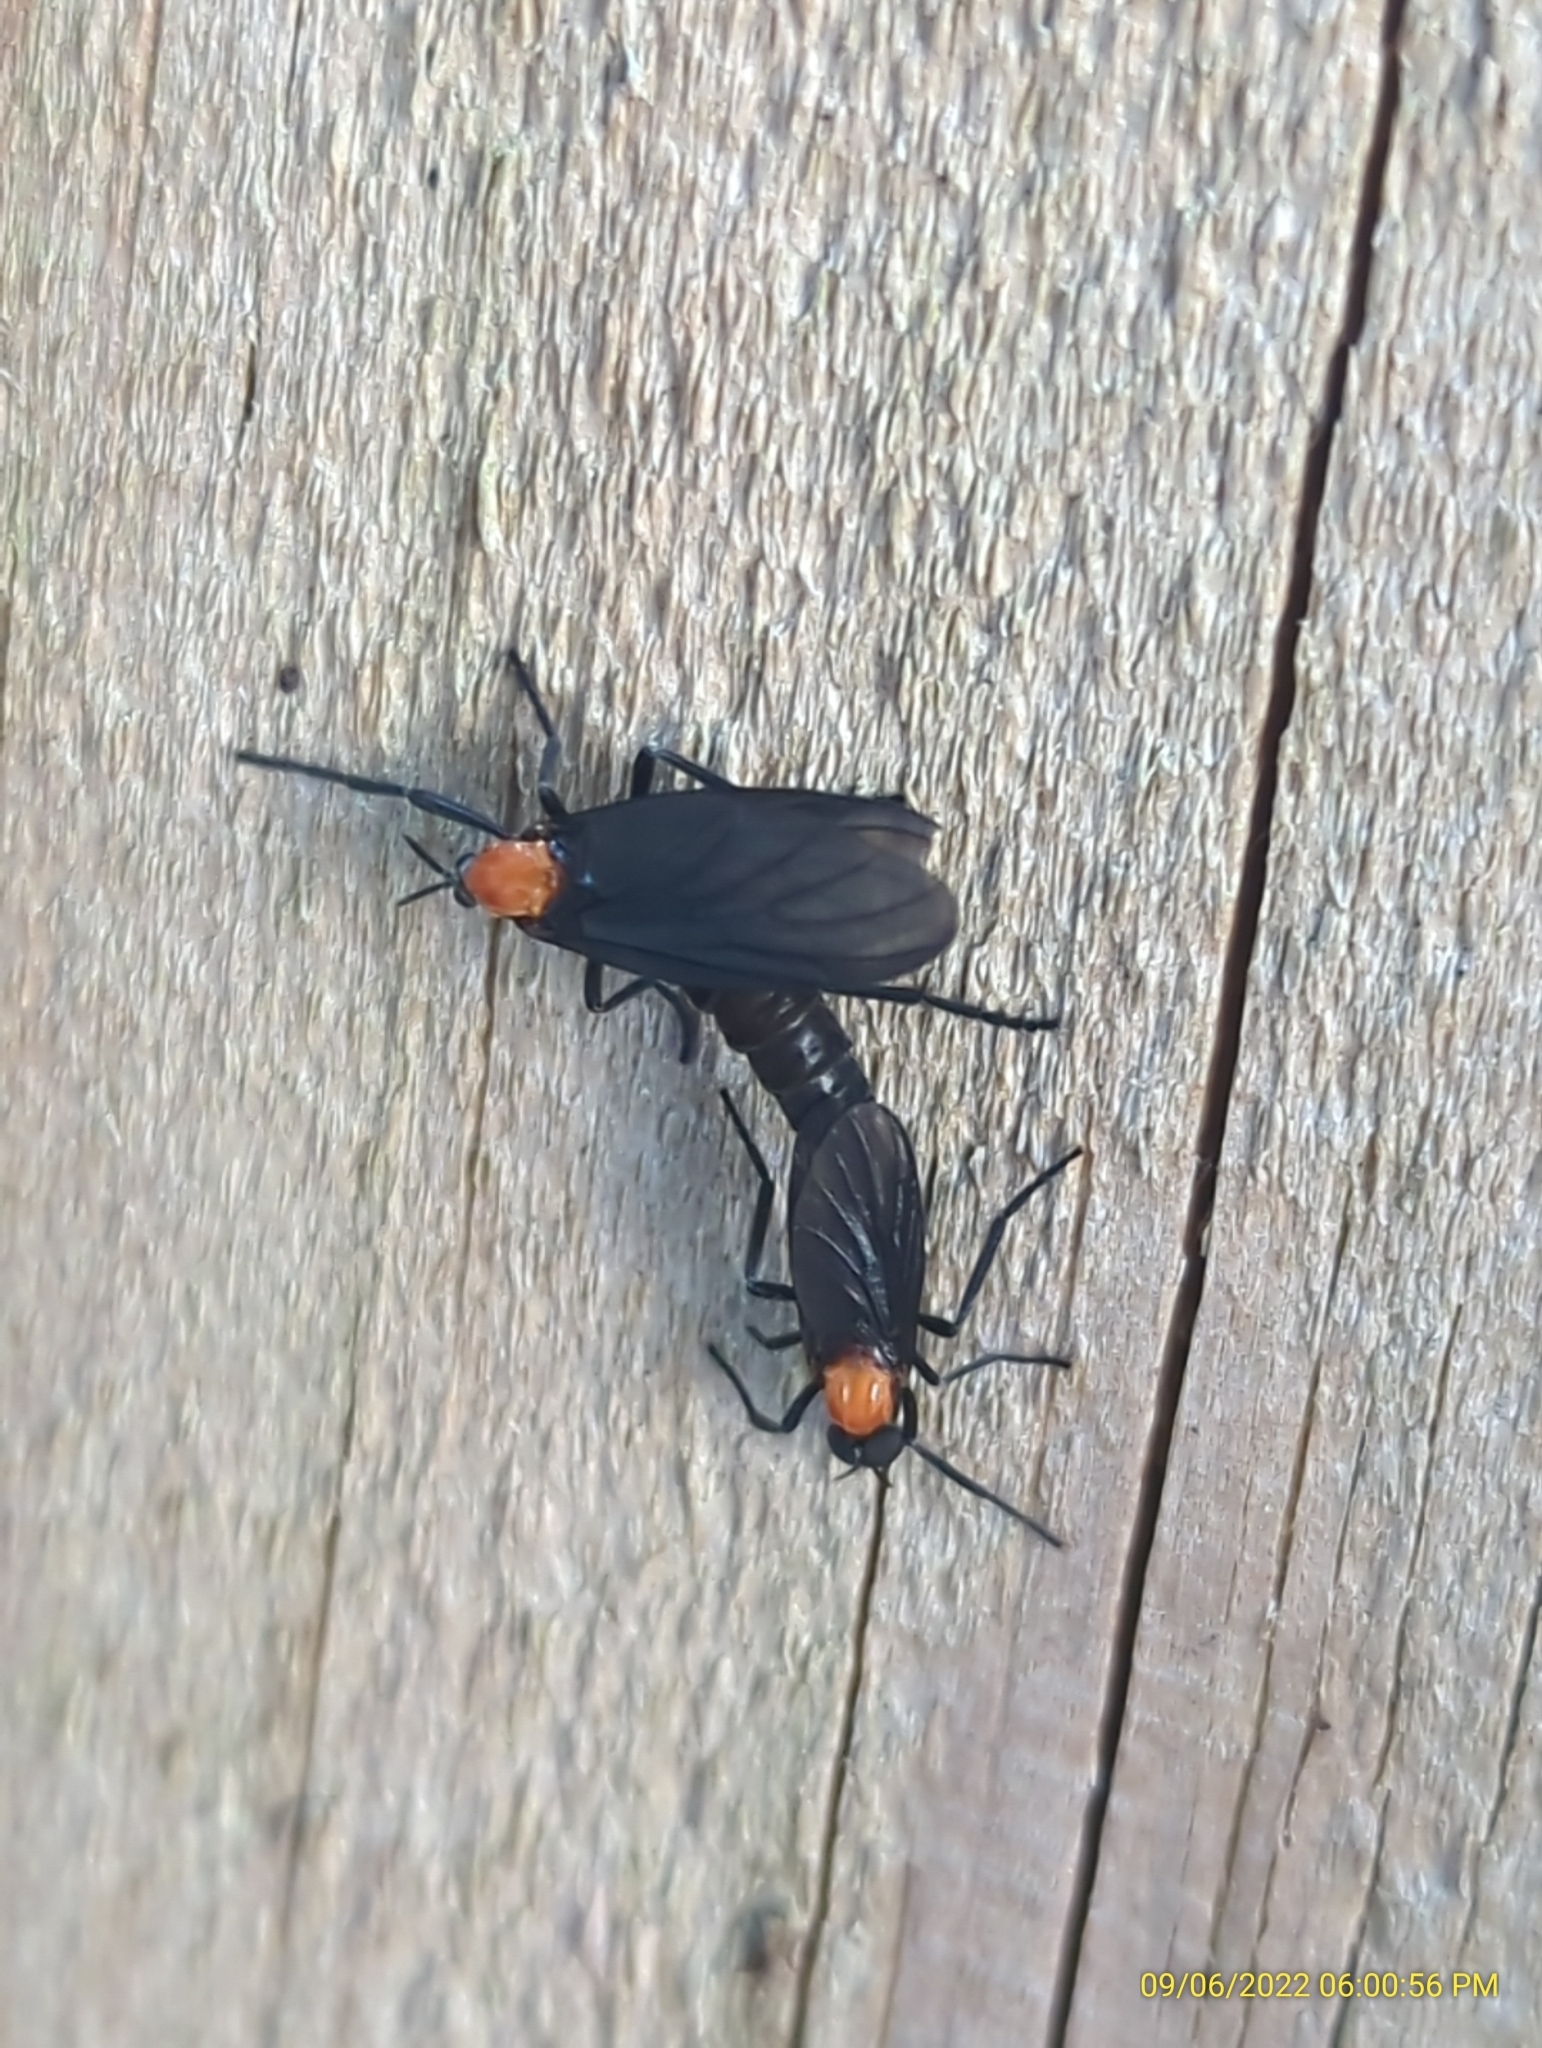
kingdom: Animalia
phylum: Arthropoda
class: Insecta
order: Diptera
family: Bibionidae
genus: Plecia
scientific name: Plecia nearctica
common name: March fly
